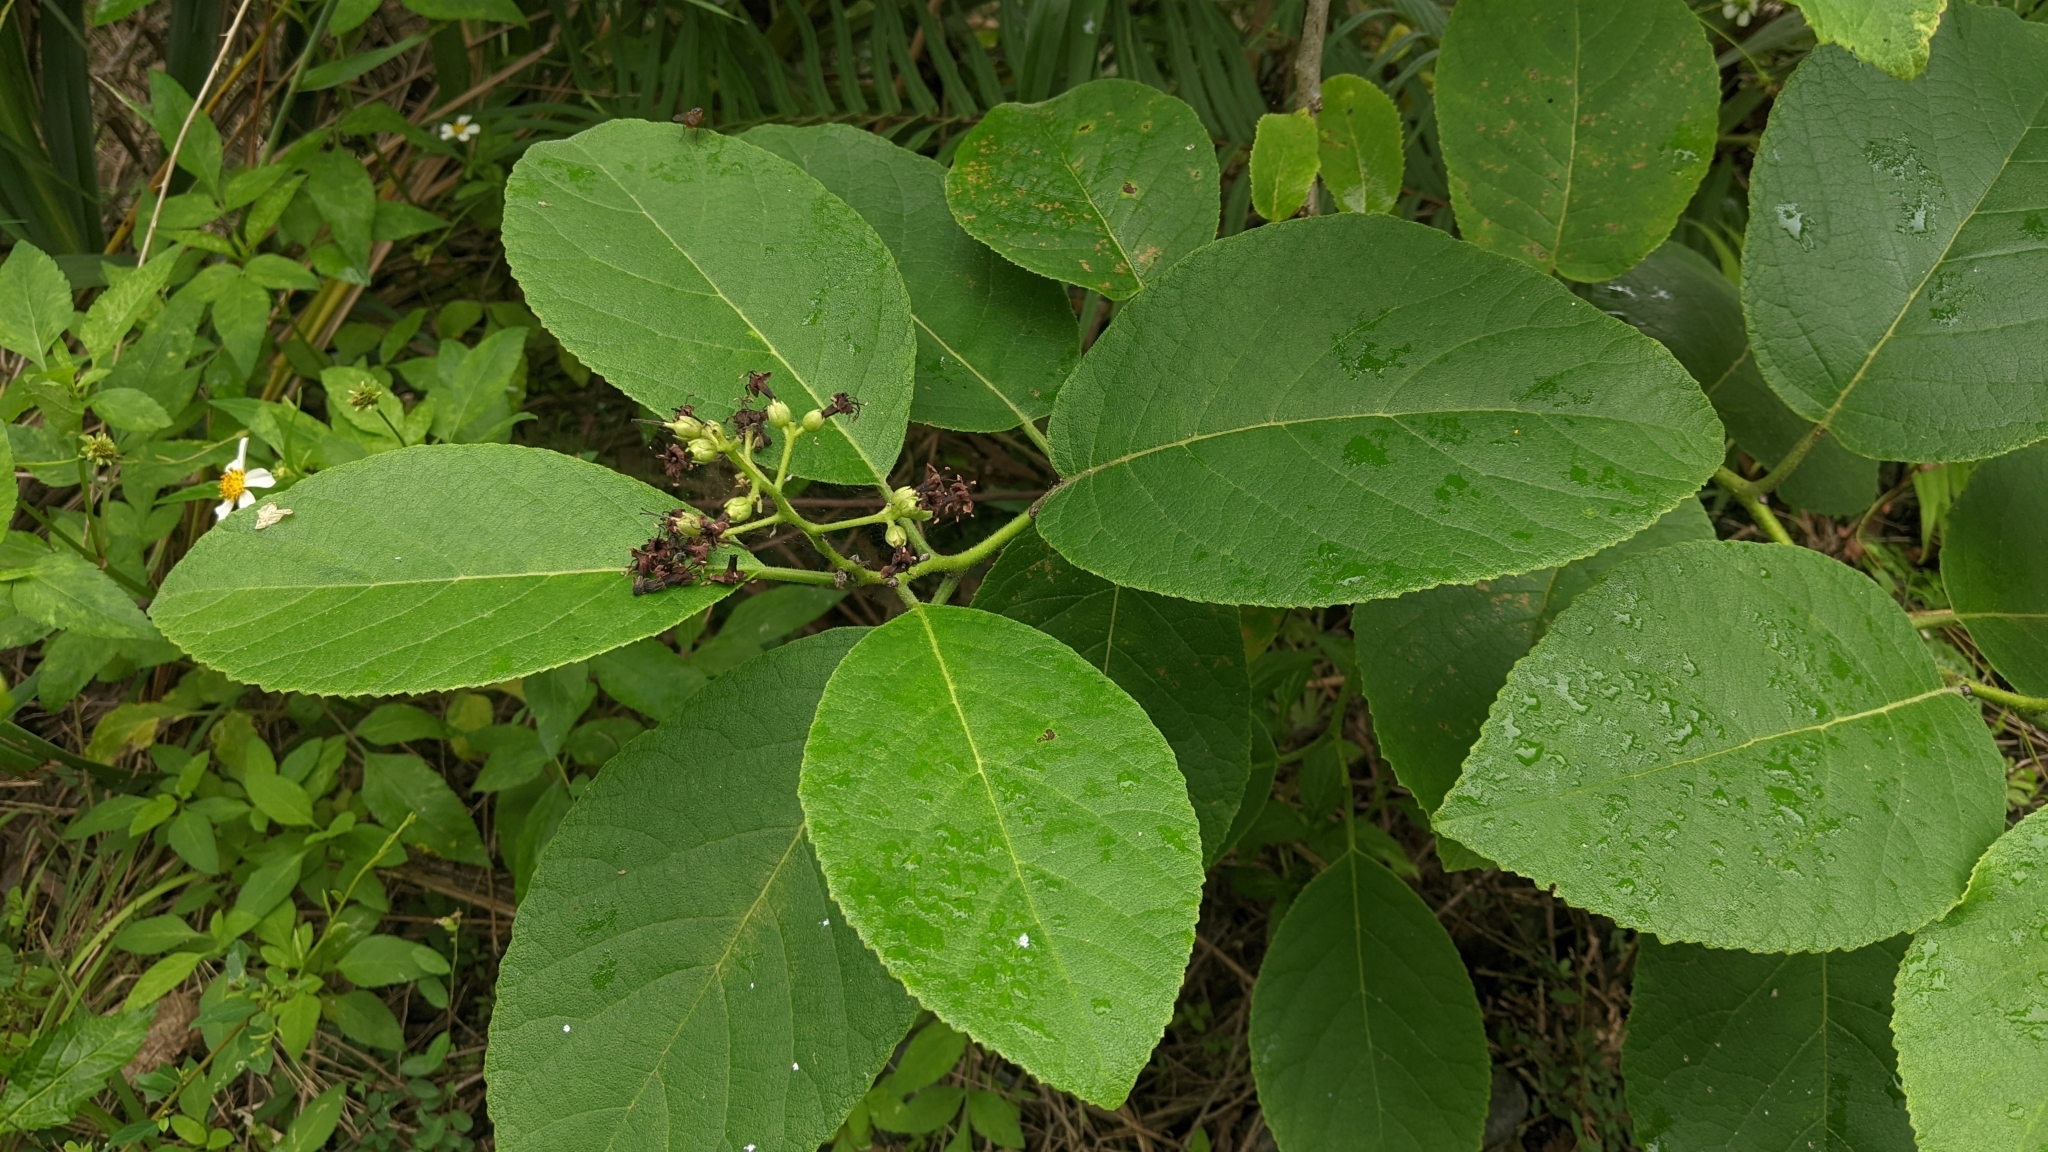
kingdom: Plantae
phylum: Tracheophyta
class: Magnoliopsida
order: Boraginales
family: Ehretiaceae
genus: Ehretia
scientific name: Ehretia dicksonii
